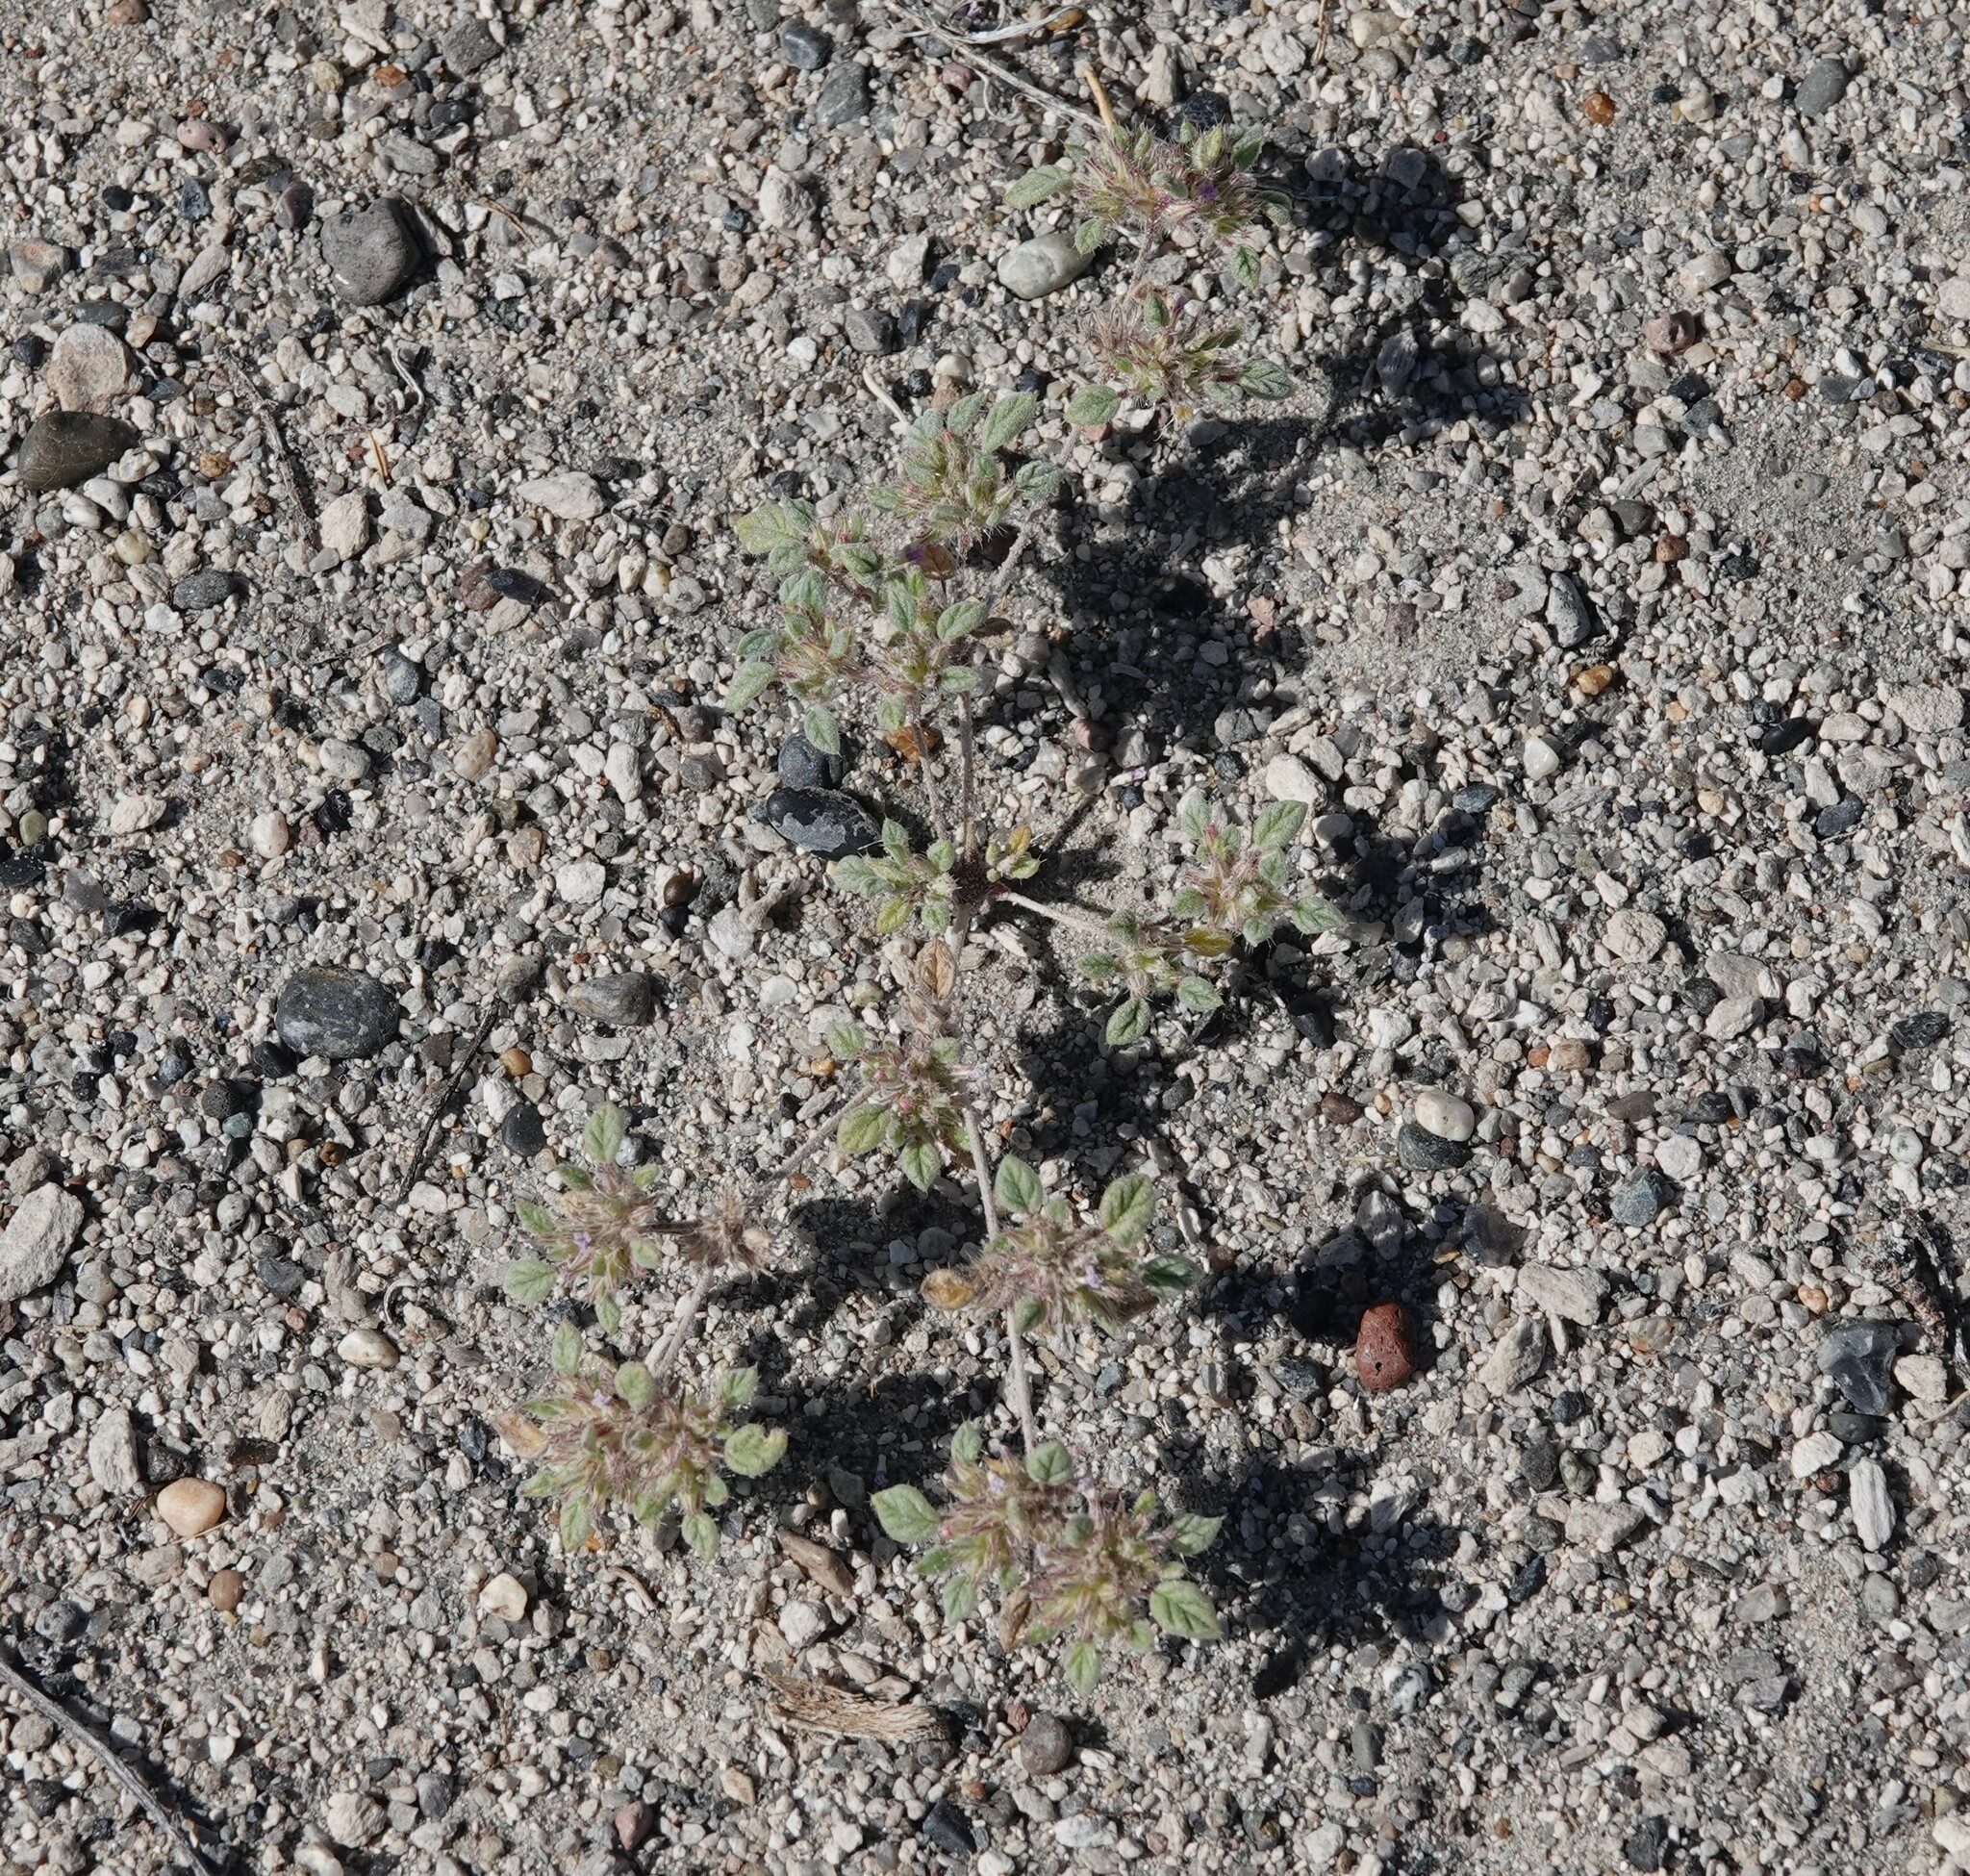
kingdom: Plantae
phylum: Tracheophyta
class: Magnoliopsida
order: Boraginales
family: Ehretiaceae
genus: Tiquilia
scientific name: Tiquilia nuttallii
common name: Rosette tiquilia
